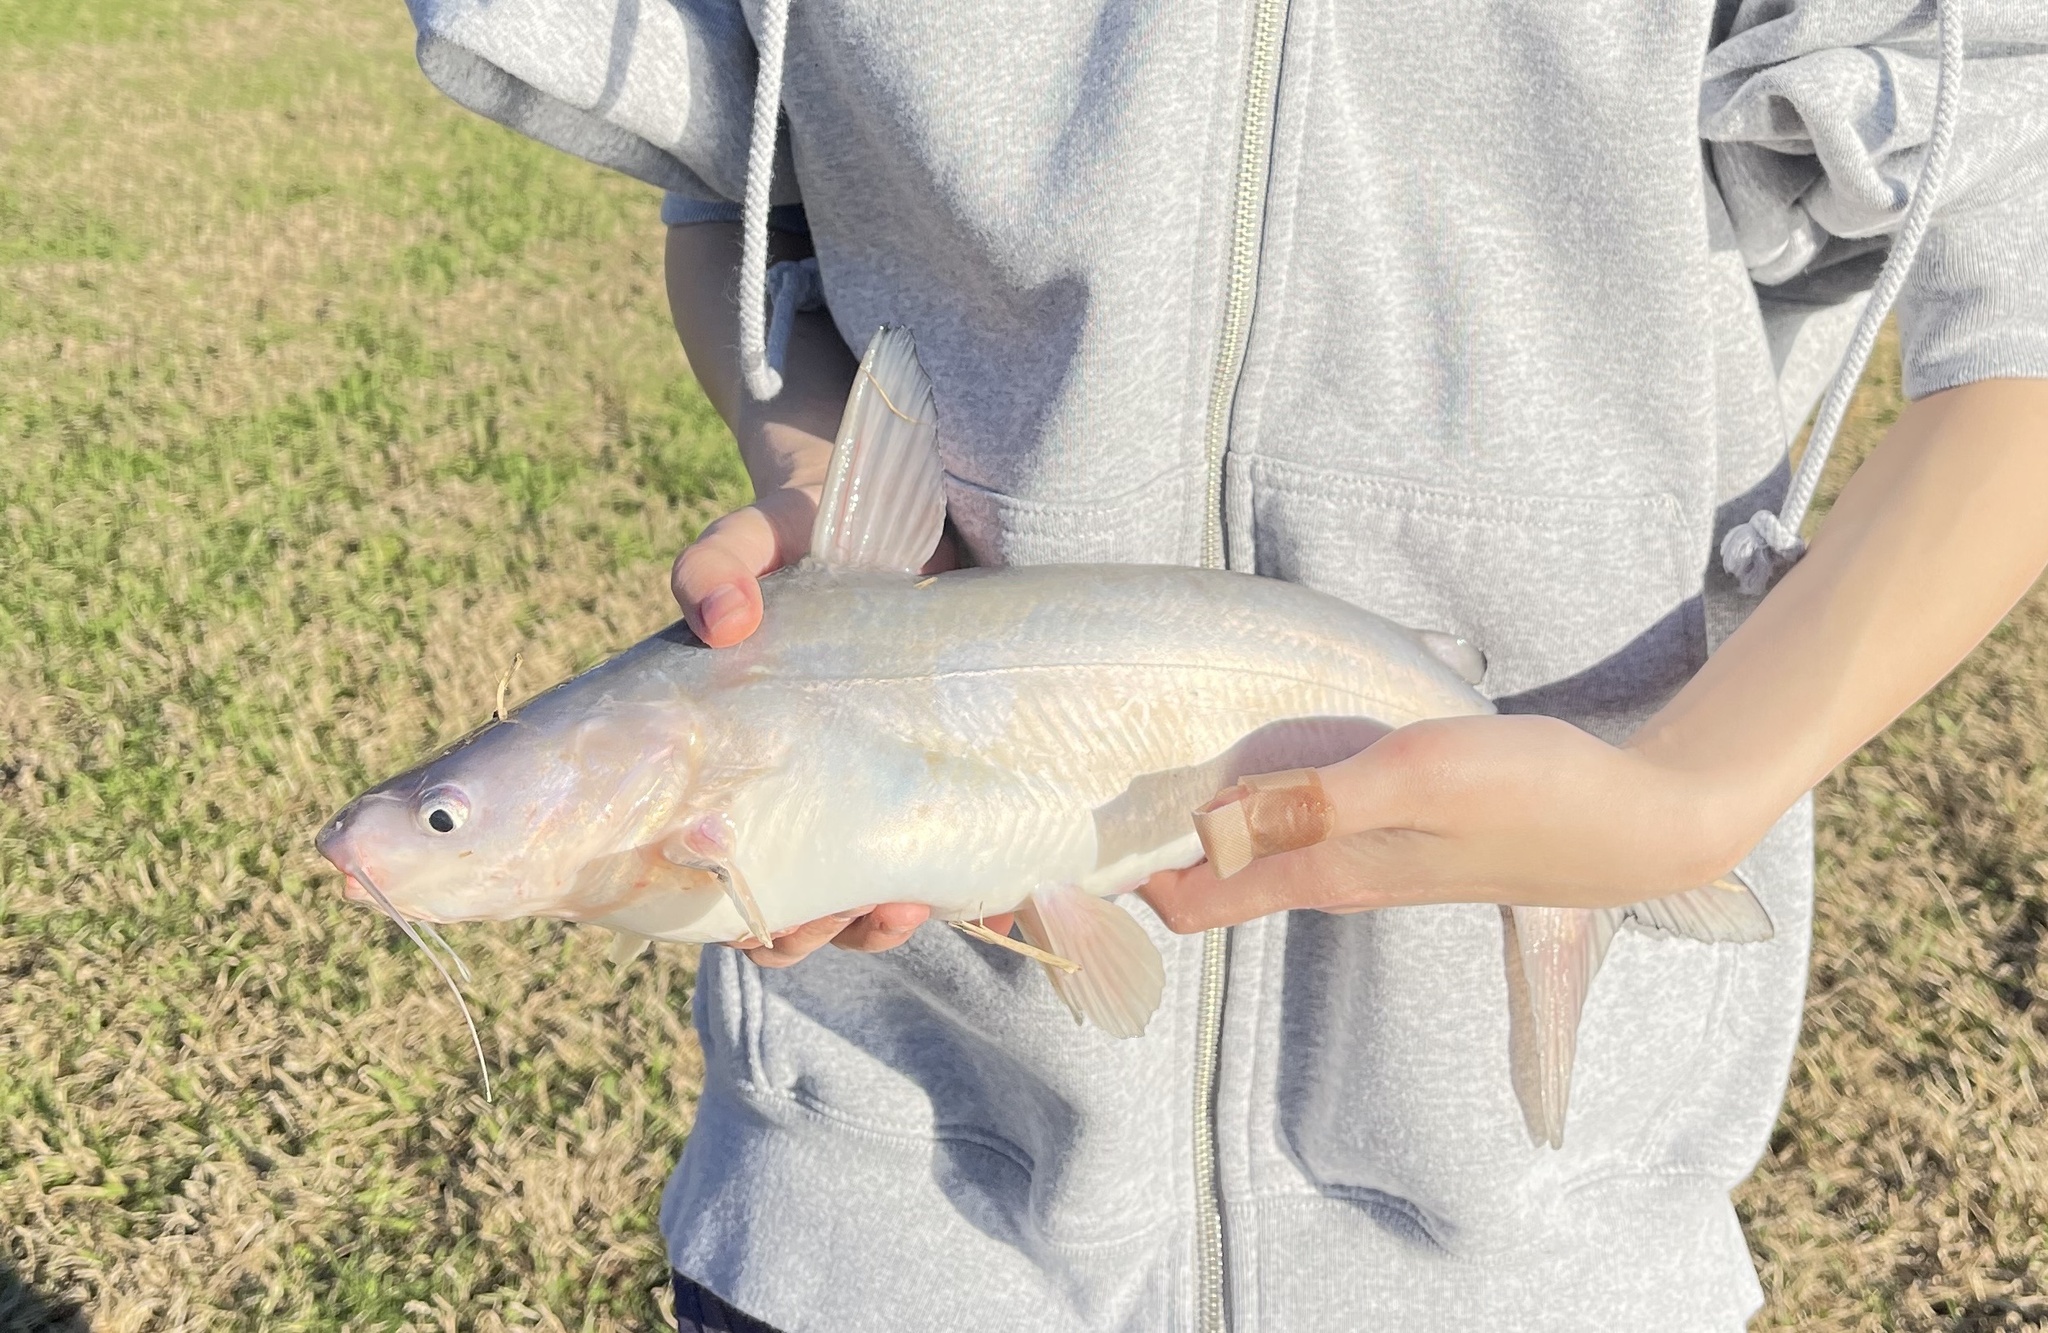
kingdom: Animalia
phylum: Chordata
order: Siluriformes
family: Ictaluridae
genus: Ictalurus
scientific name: Ictalurus furcatus
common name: Blue catfish
